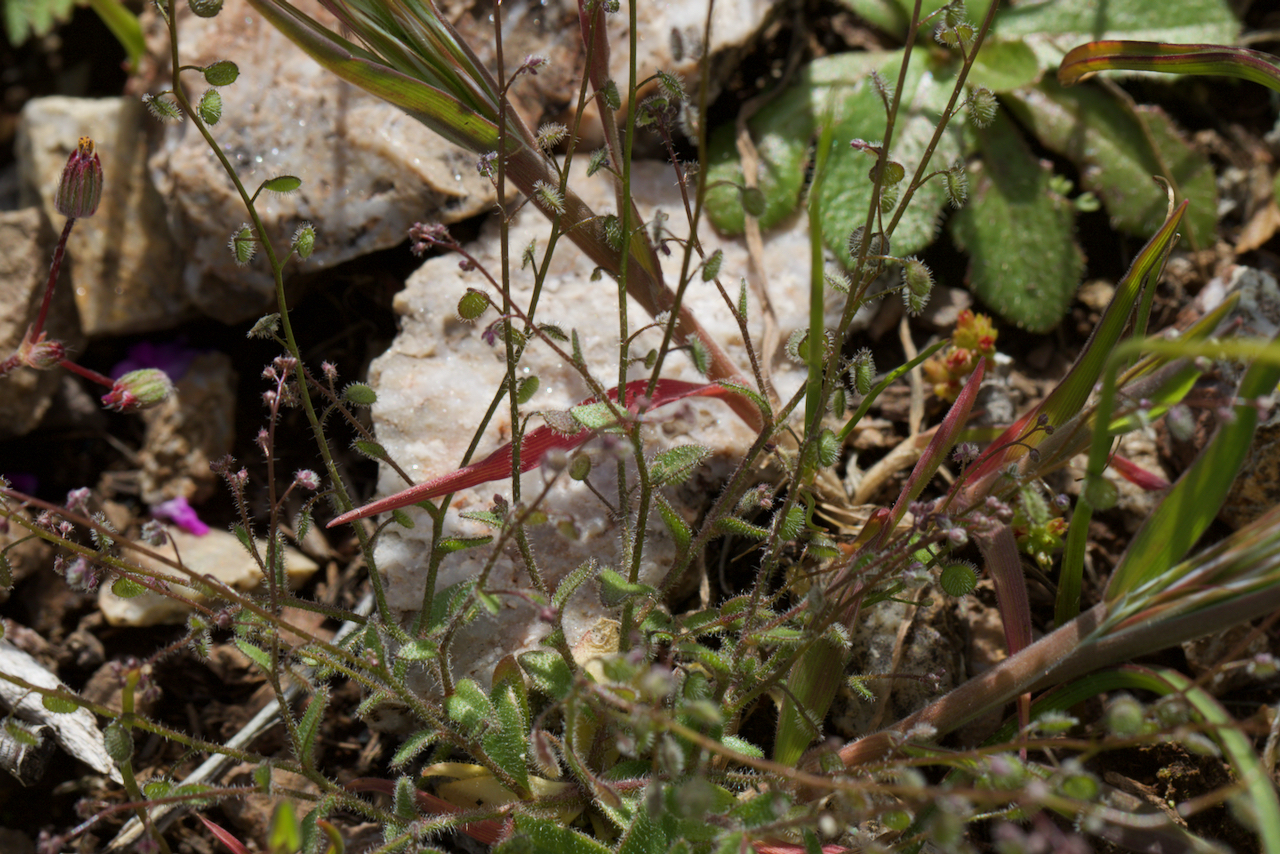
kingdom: Plantae
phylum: Tracheophyta
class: Magnoliopsida
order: Brassicales
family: Brassicaceae
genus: Athysanus
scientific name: Athysanus pusillus
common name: Common sandweed
